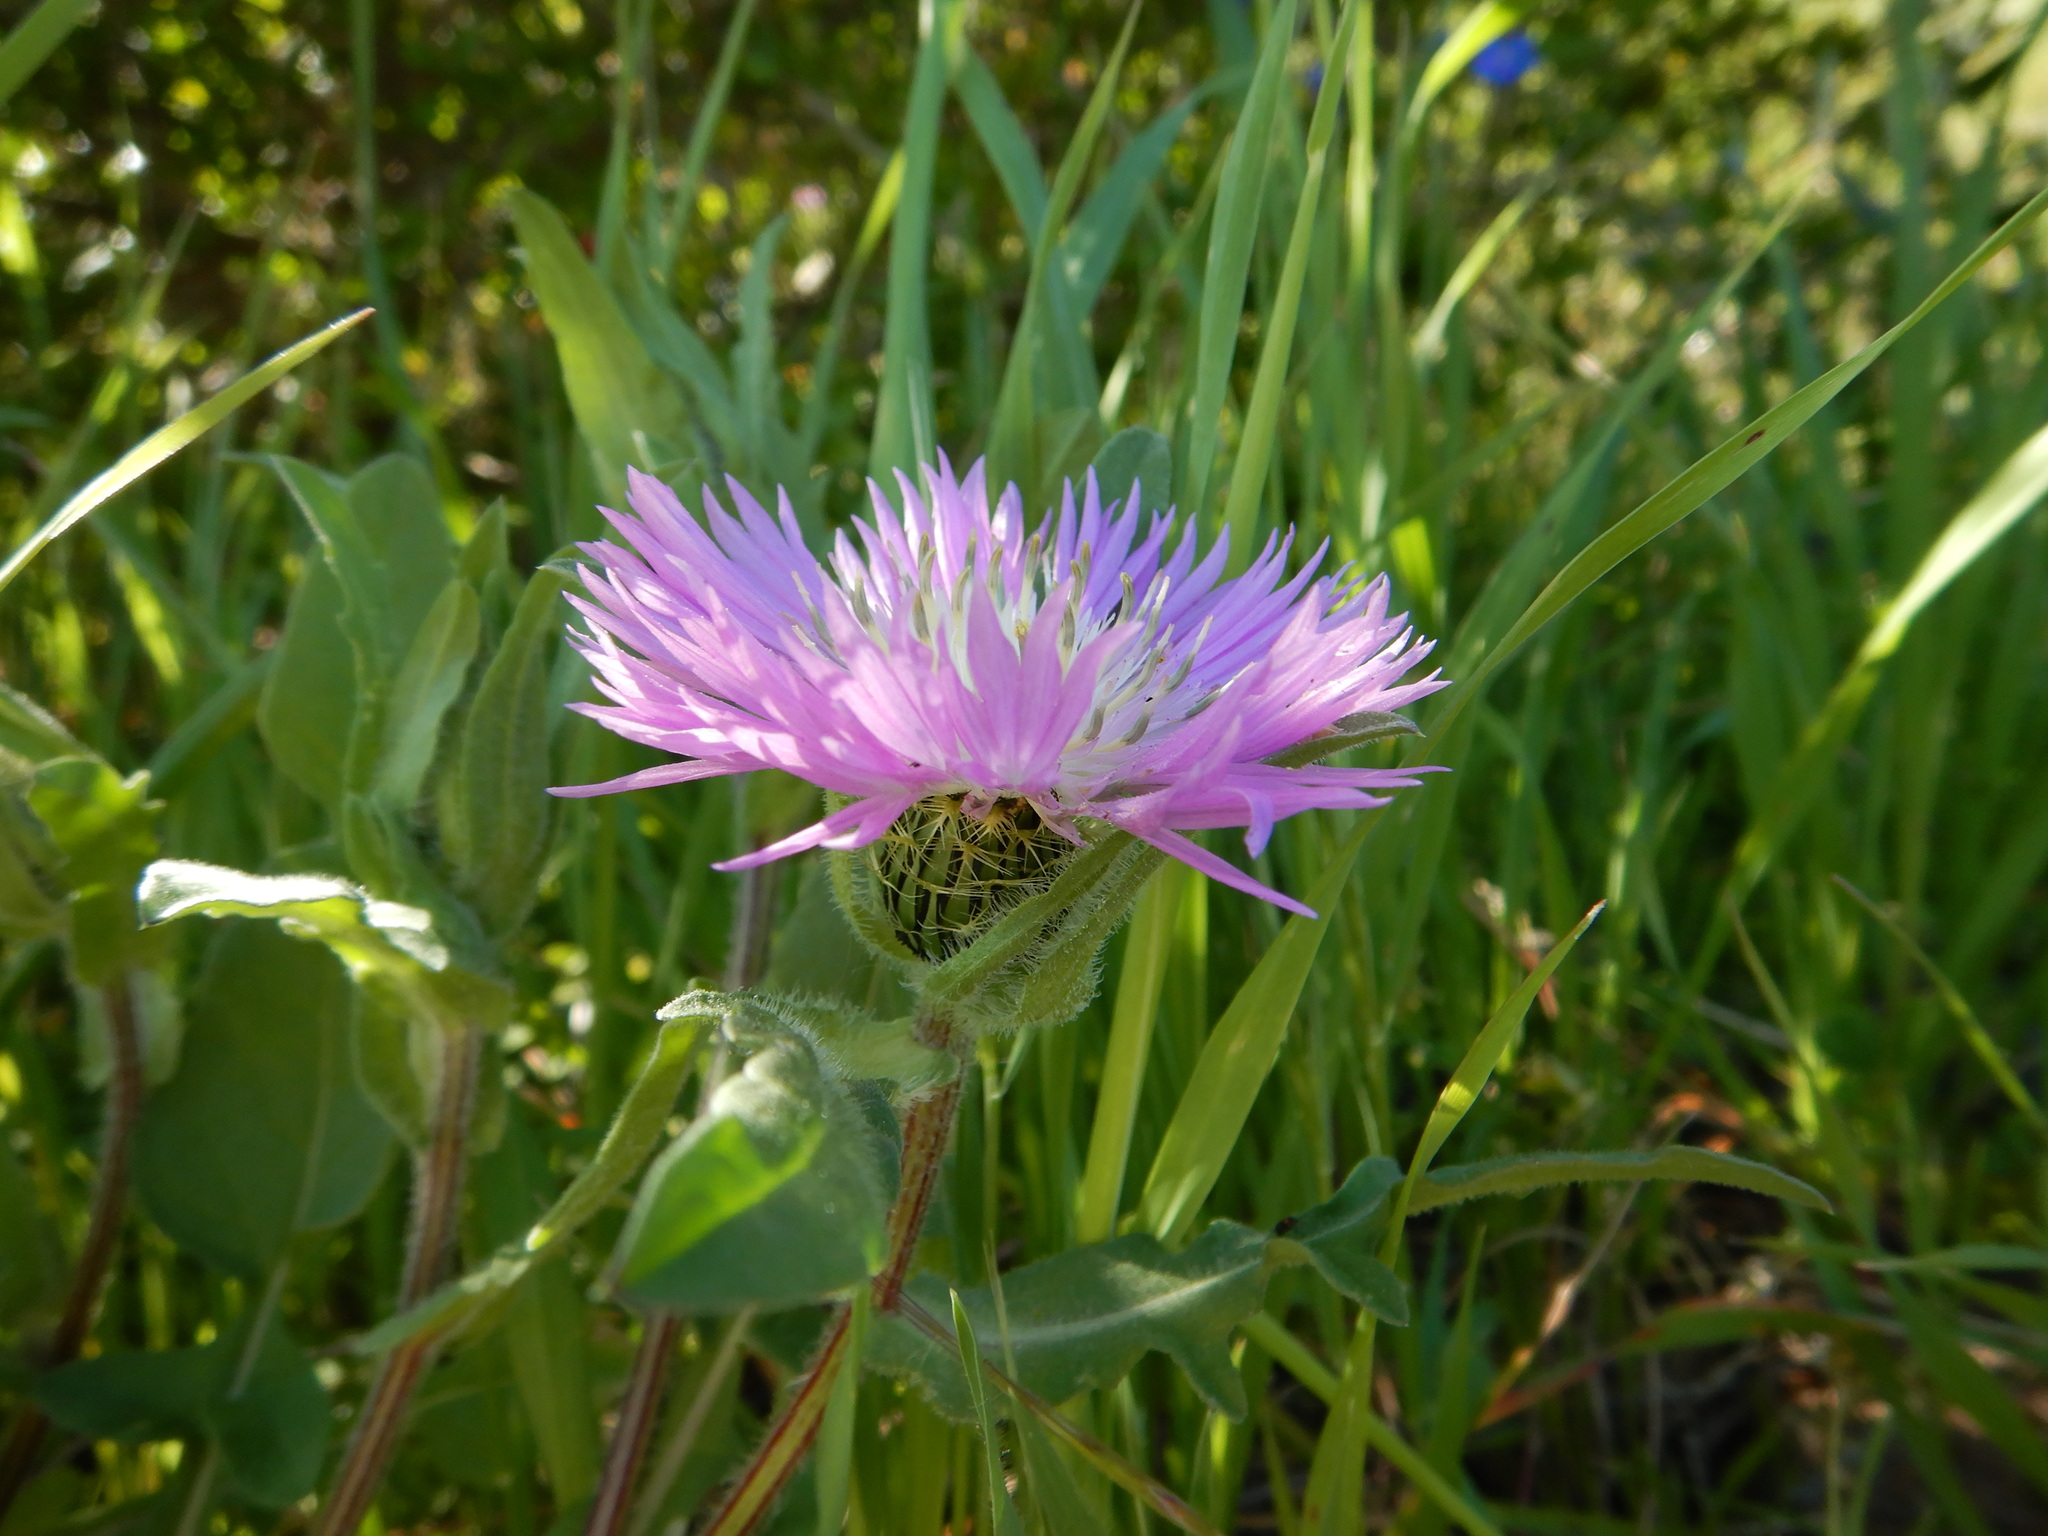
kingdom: Plantae
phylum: Tracheophyta
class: Magnoliopsida
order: Asterales
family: Asteraceae
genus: Centaurea
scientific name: Centaurea pullata
